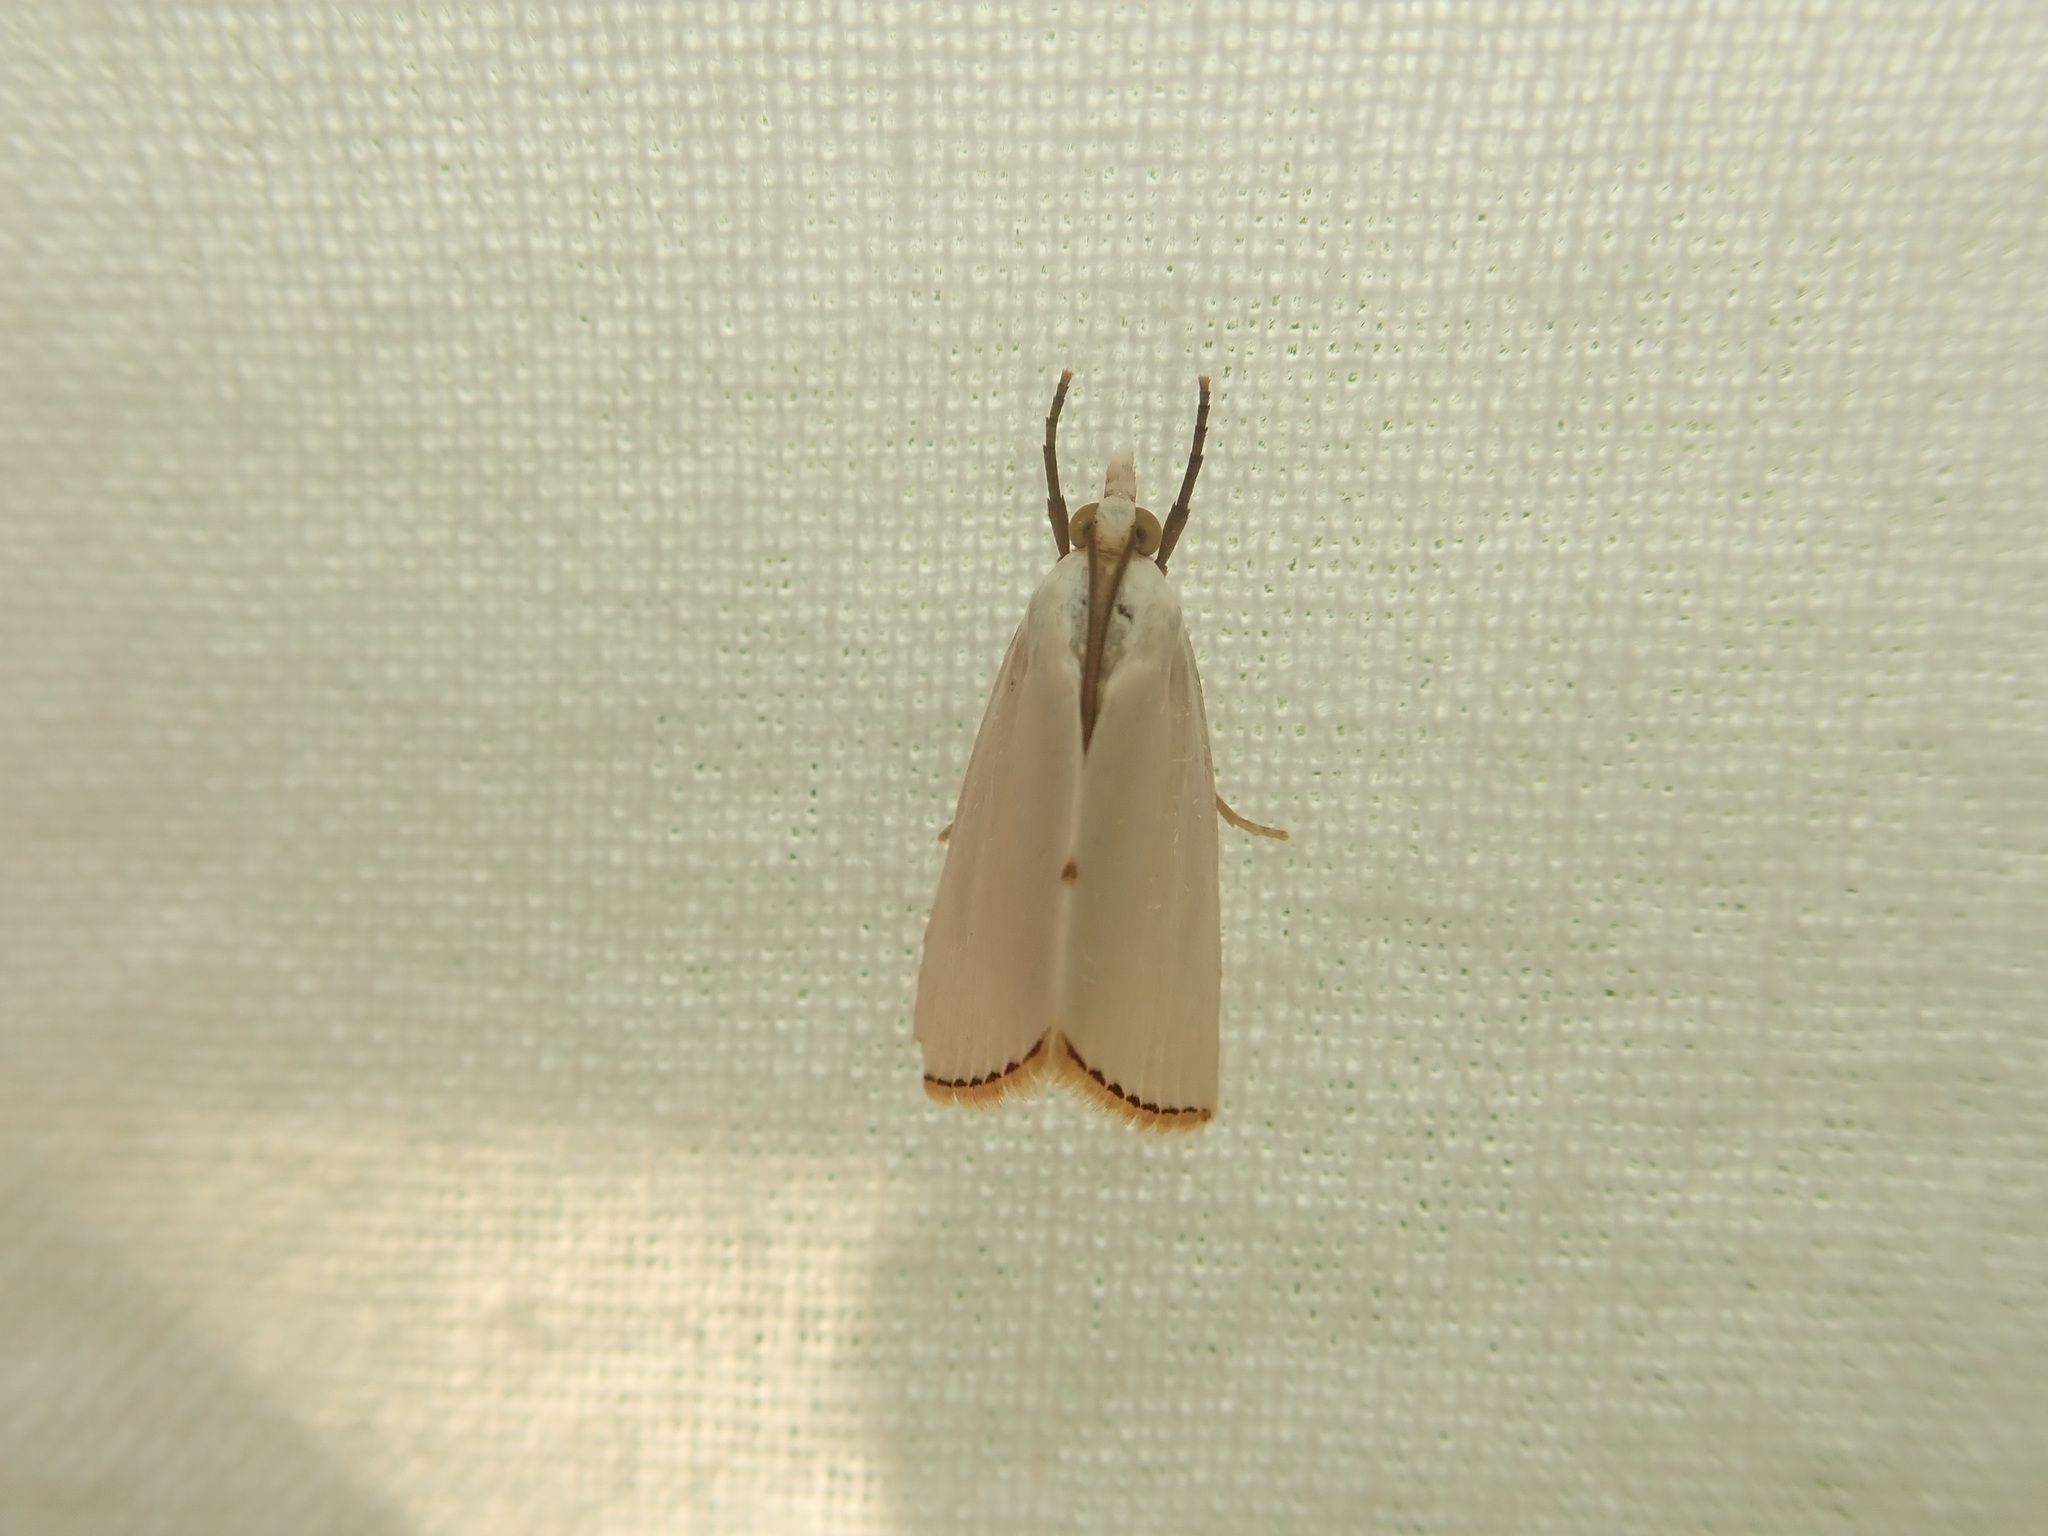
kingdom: Animalia
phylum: Arthropoda
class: Insecta
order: Lepidoptera
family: Crambidae
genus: Argyria
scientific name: Argyria nivalis
